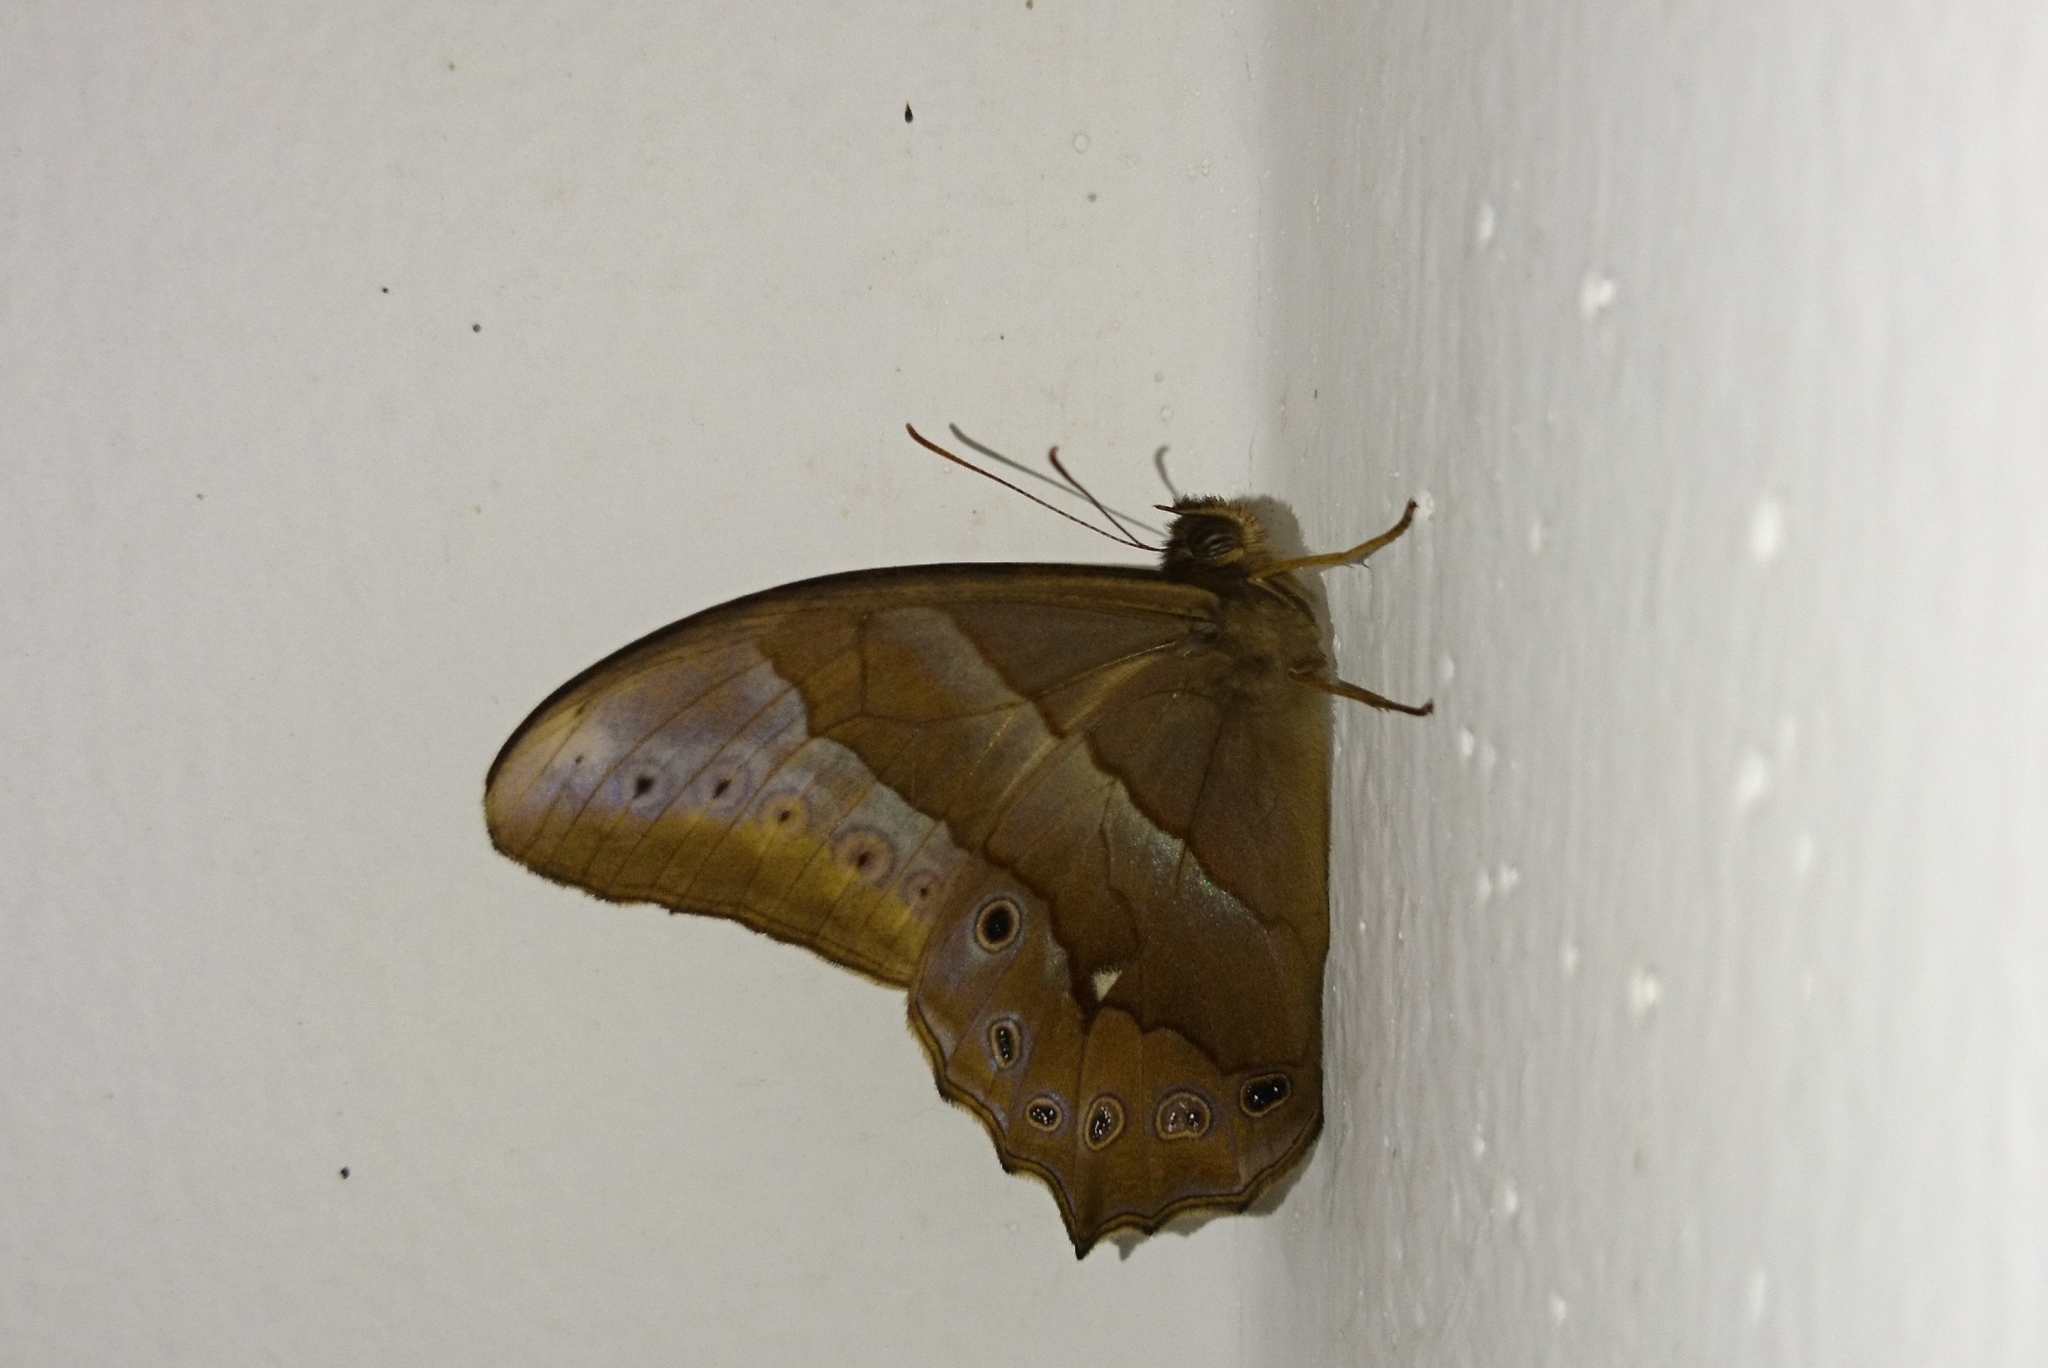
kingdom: Animalia
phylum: Arthropoda
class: Insecta
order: Lepidoptera
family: Nymphalidae
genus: Lethe
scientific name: Lethe mekara
